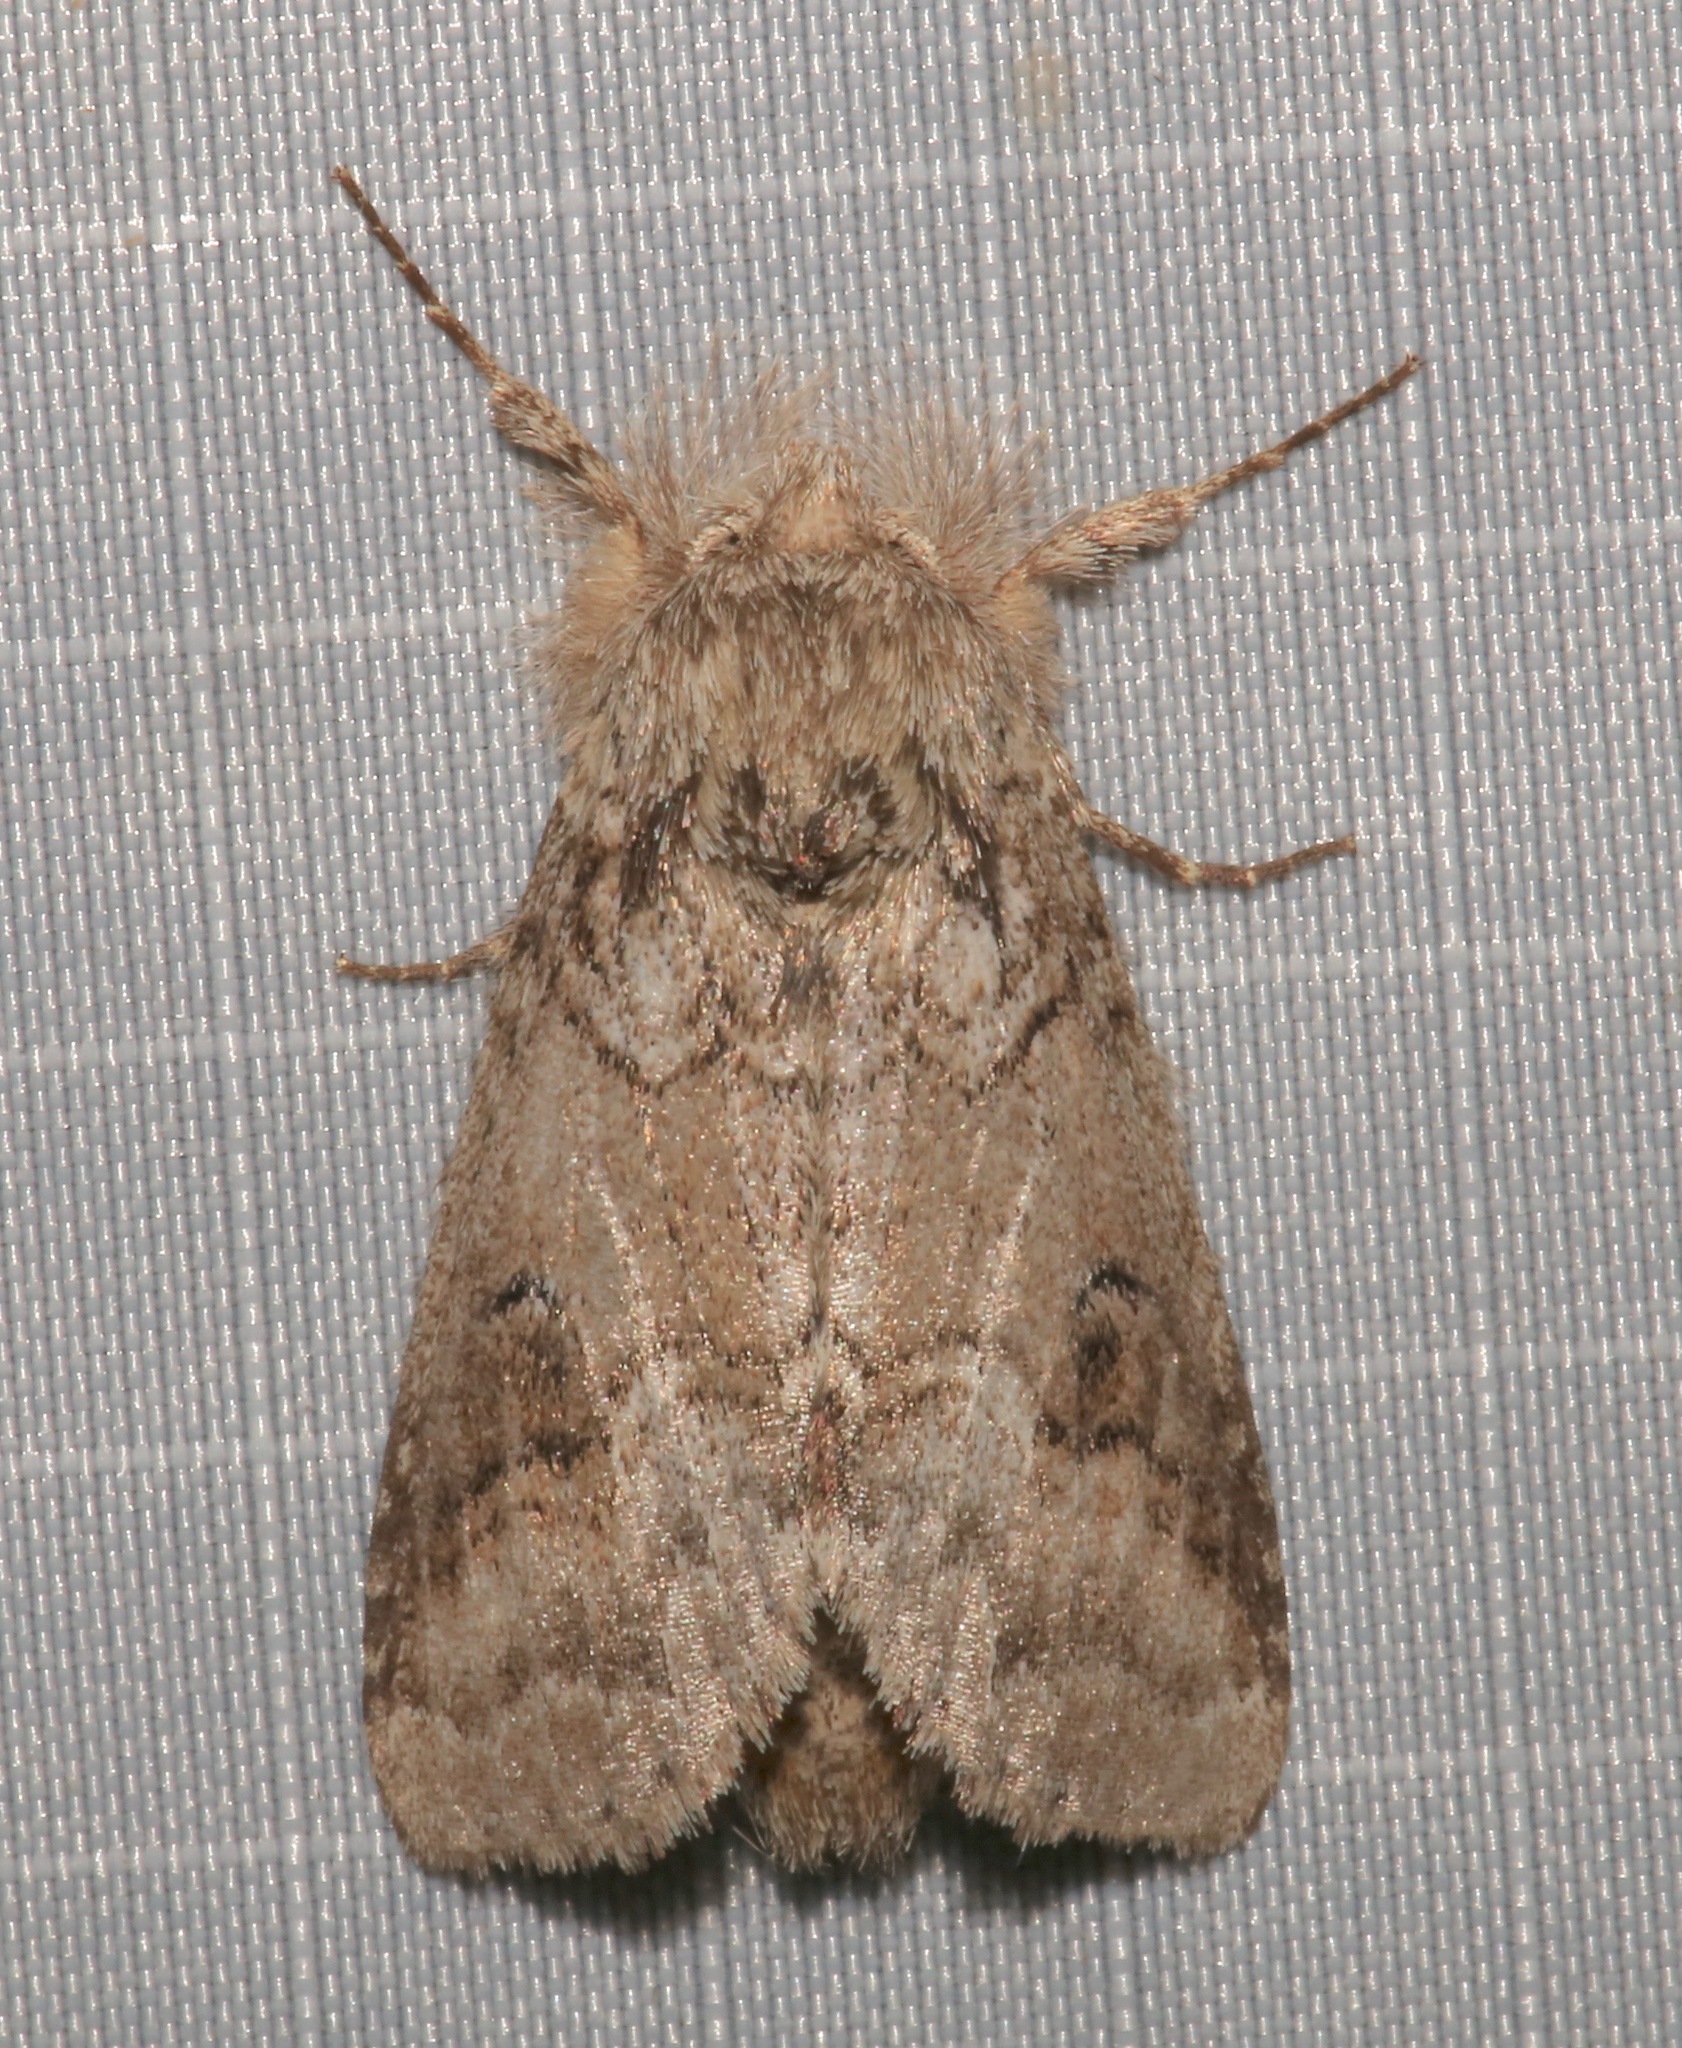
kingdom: Animalia
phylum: Arthropoda
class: Insecta
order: Lepidoptera
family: Notodontidae
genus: Lochmaeus
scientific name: Lochmaeus bilineata
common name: Double-lined prominent
